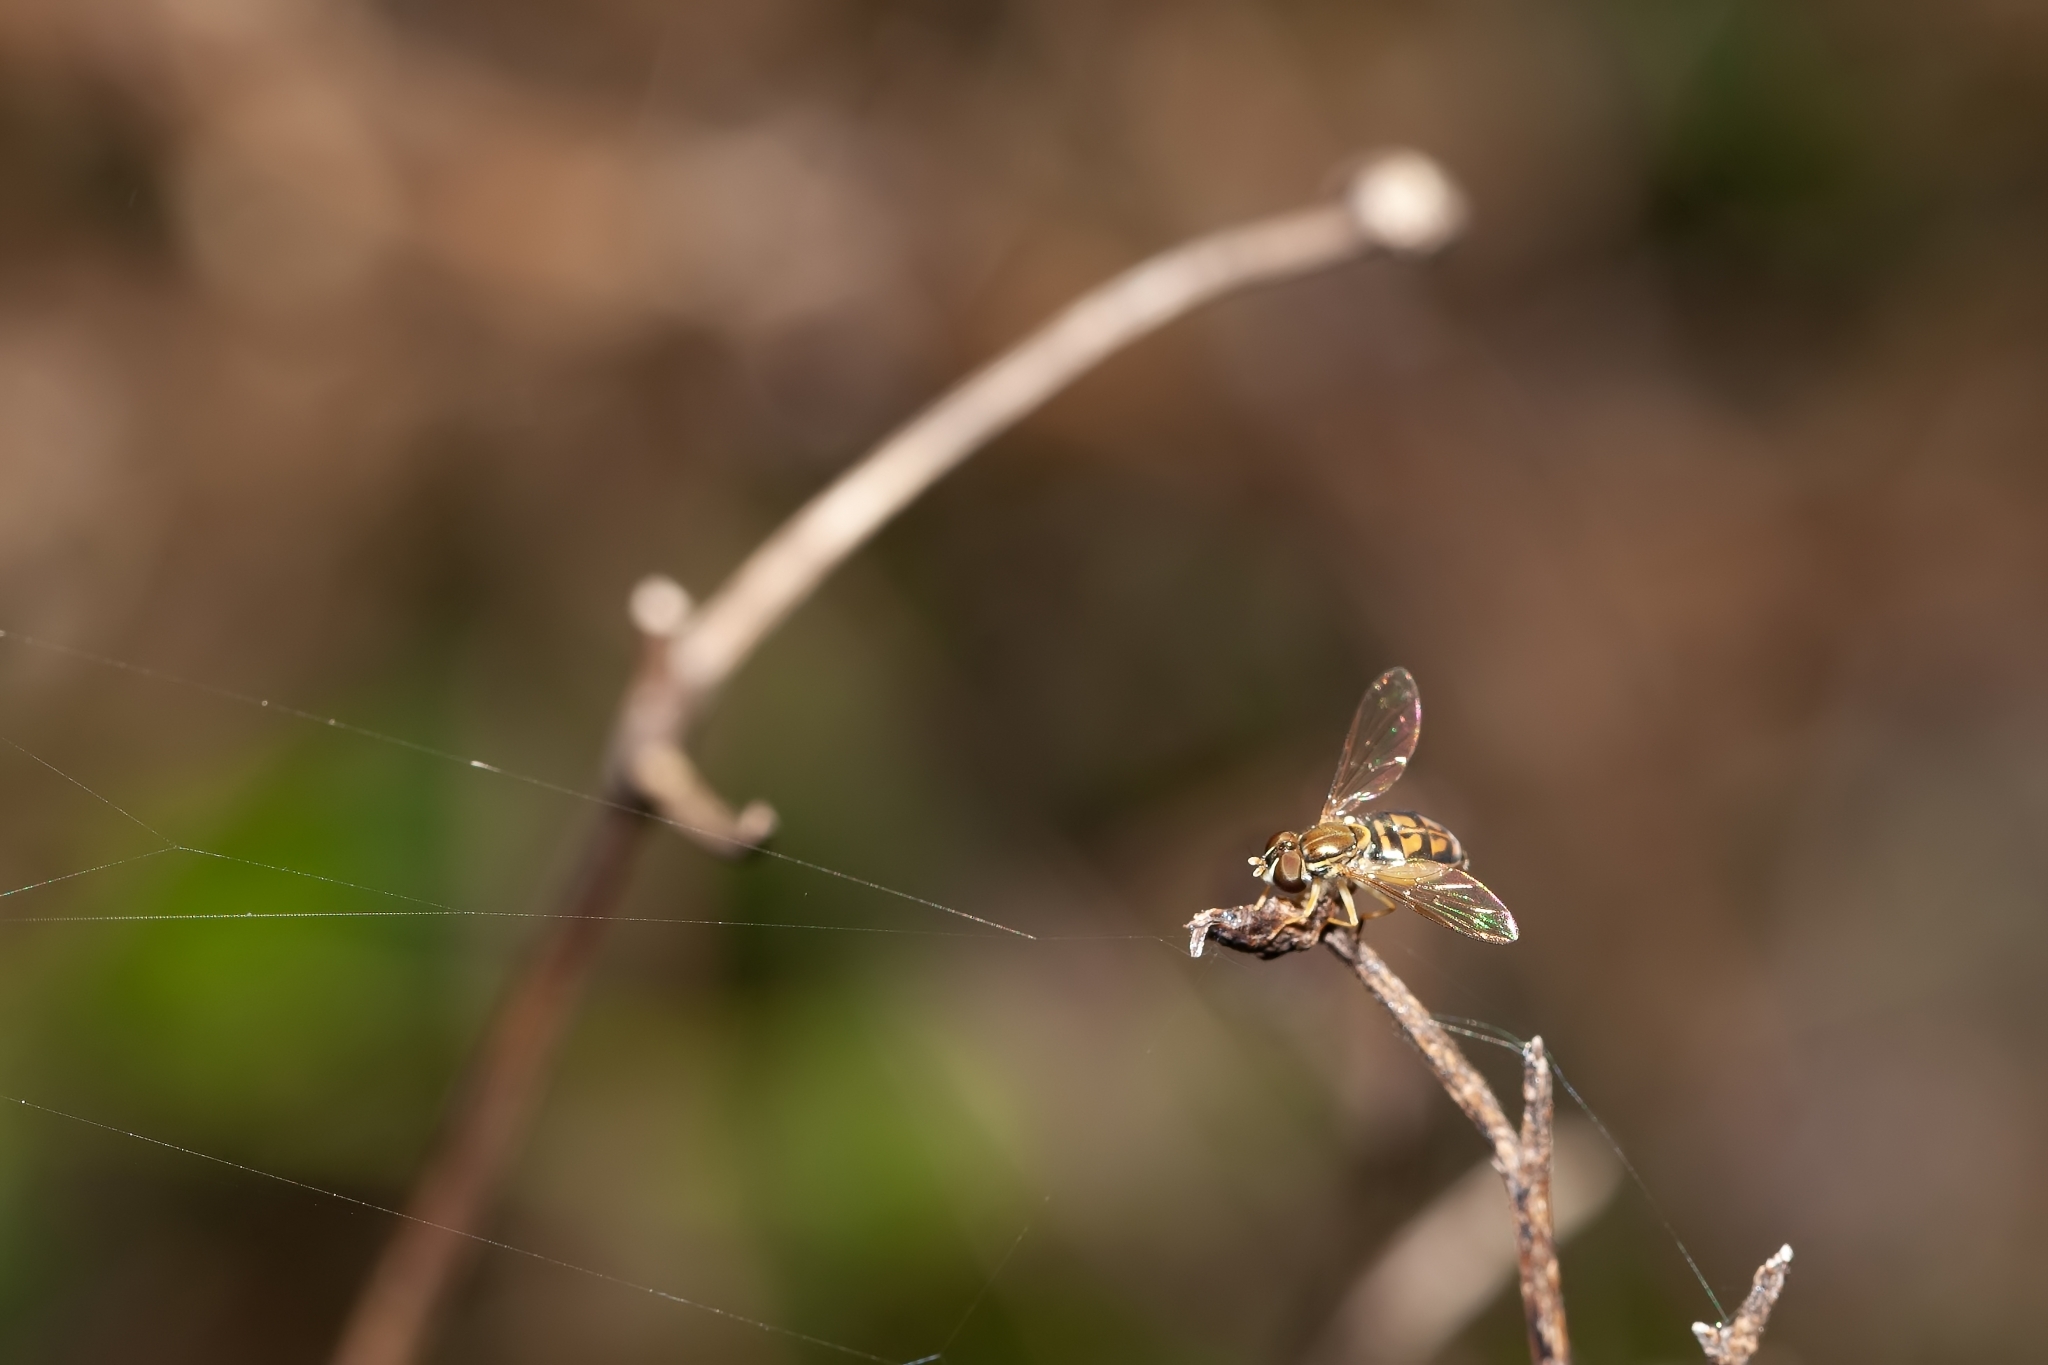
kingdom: Animalia
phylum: Arthropoda
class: Insecta
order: Diptera
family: Syrphidae
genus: Toxomerus
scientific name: Toxomerus marginatus
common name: Syrphid fly
